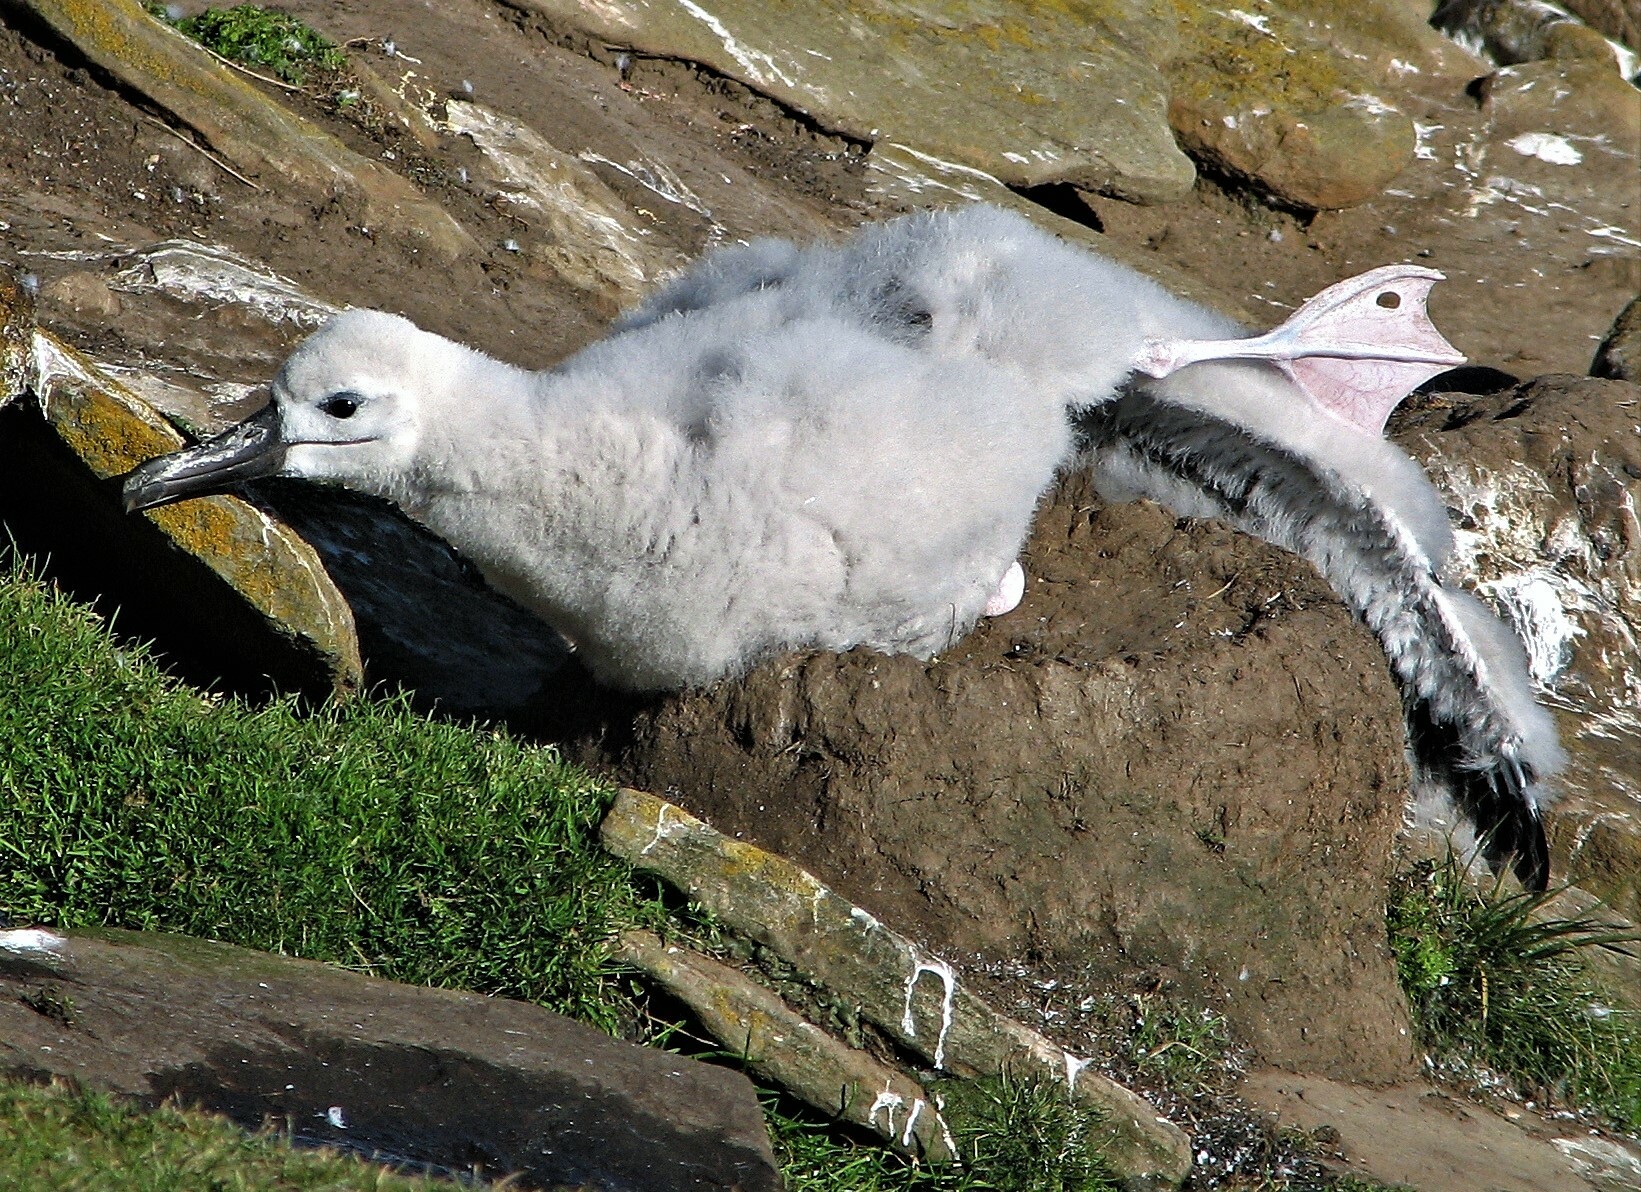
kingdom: Animalia
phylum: Chordata
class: Aves
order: Procellariiformes
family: Diomedeidae
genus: Thalassarche
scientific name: Thalassarche melanophris
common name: Black-browed albatross
